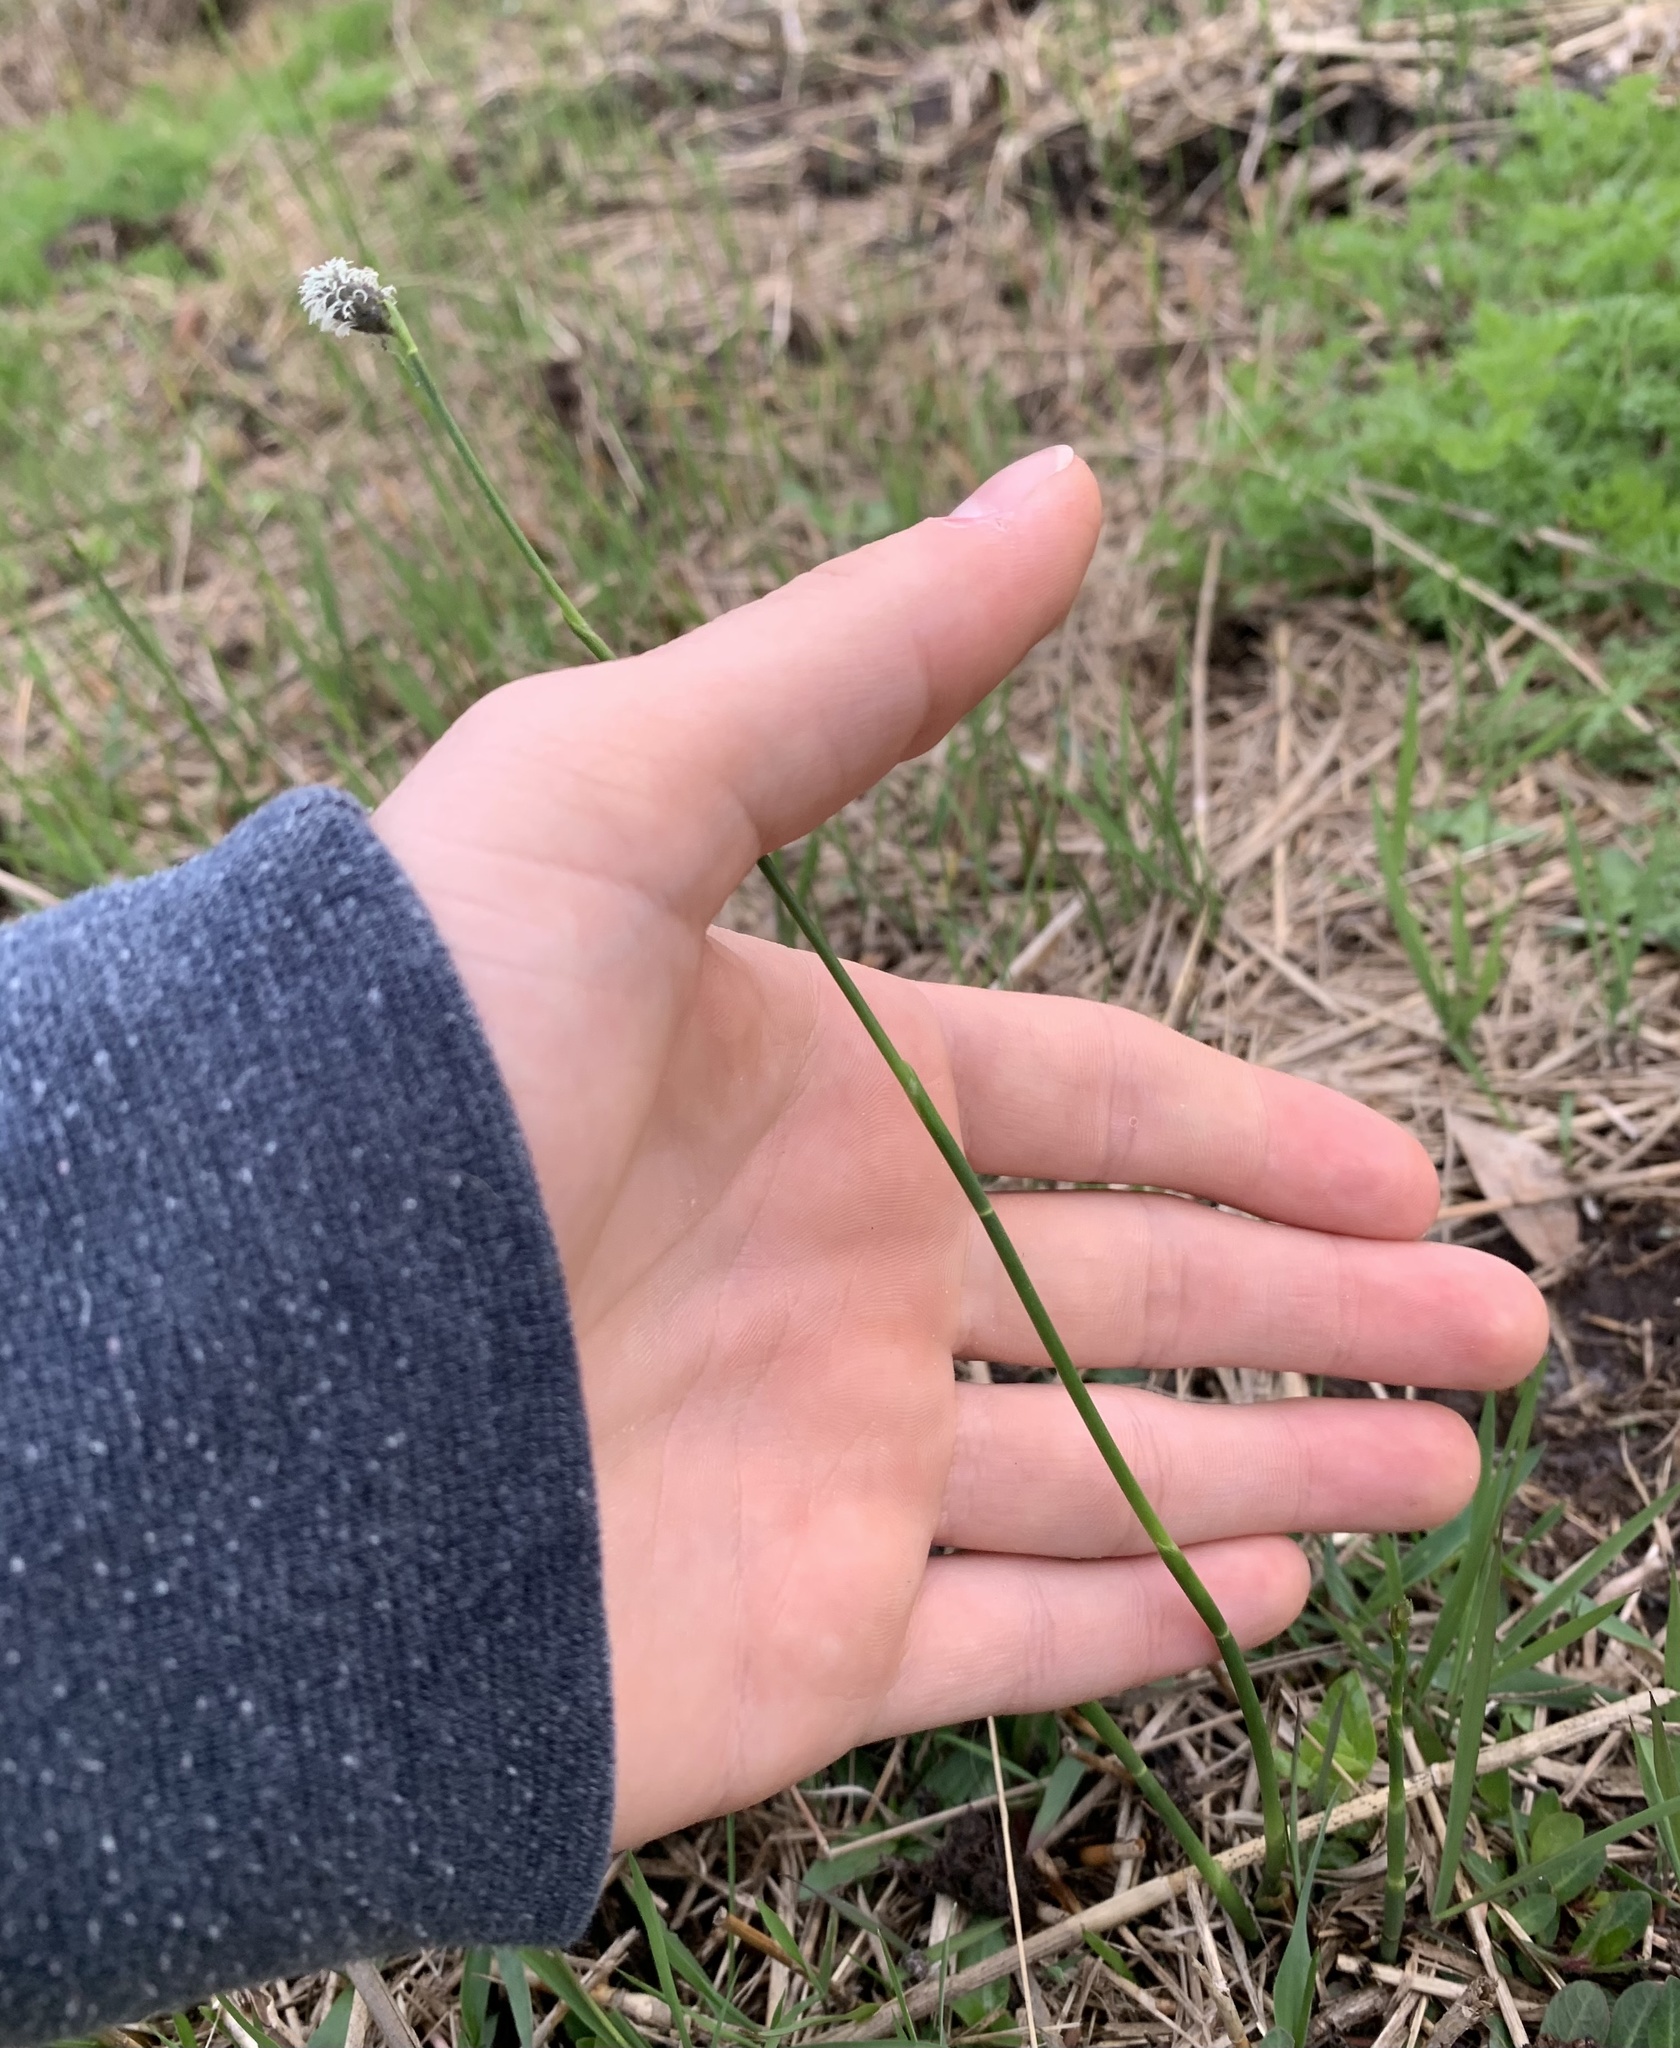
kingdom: Plantae
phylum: Tracheophyta
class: Liliopsida
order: Poales
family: Cyperaceae
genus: Fuirena
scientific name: Fuirena scirpoidea
